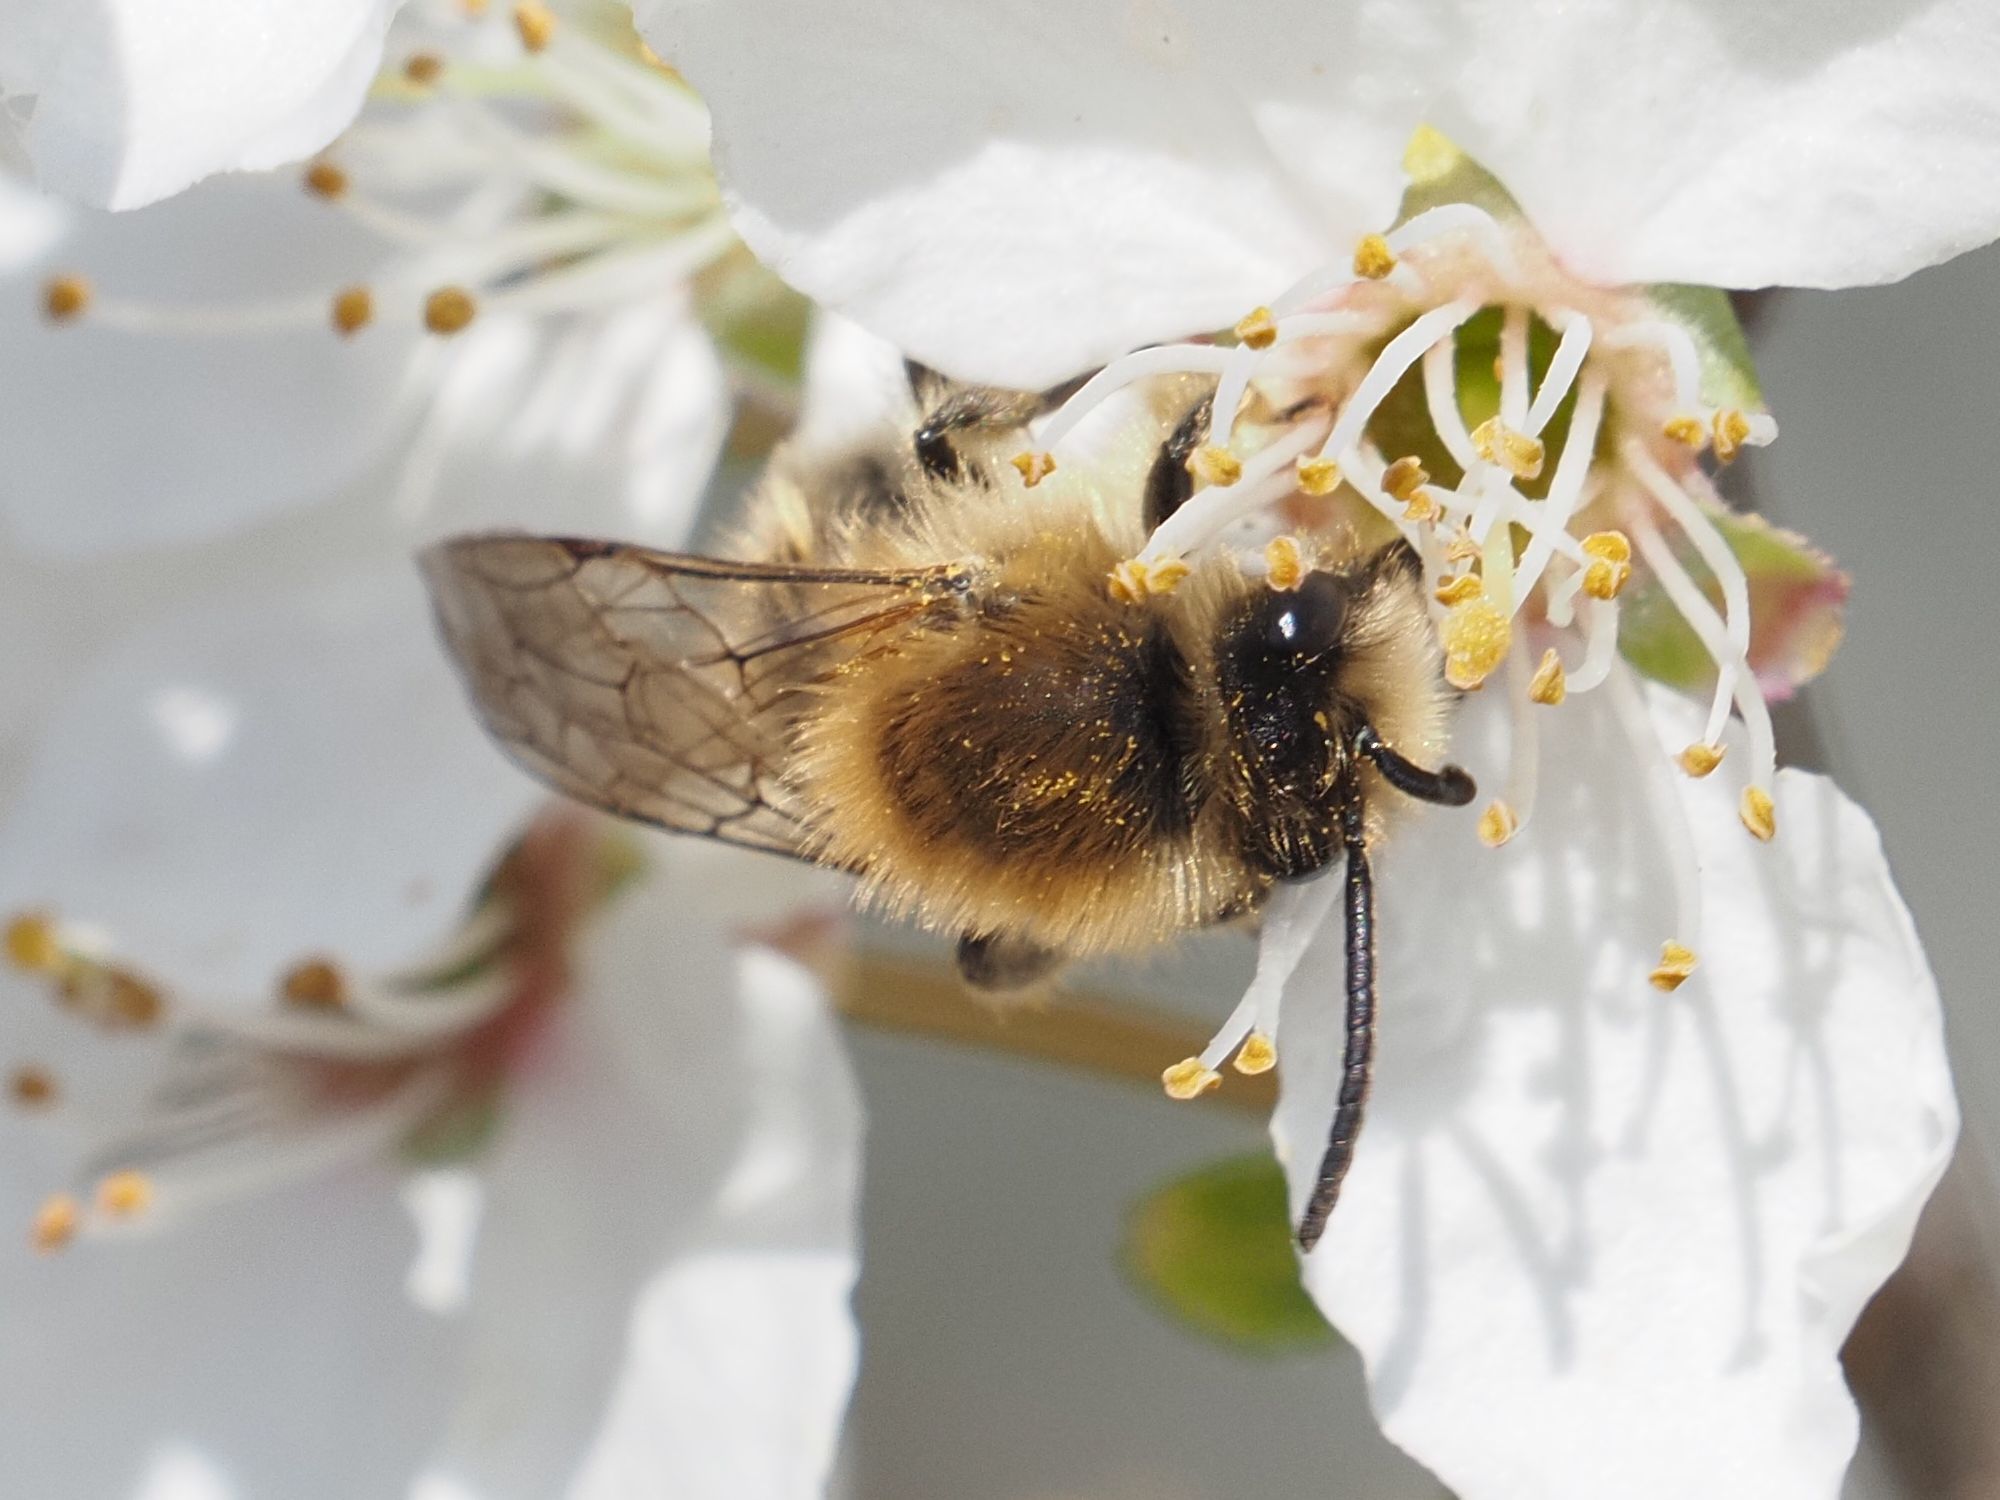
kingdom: Animalia
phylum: Arthropoda
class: Insecta
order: Hymenoptera
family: Colletidae
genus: Colletes
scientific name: Colletes cunicularius
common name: Early colletes
